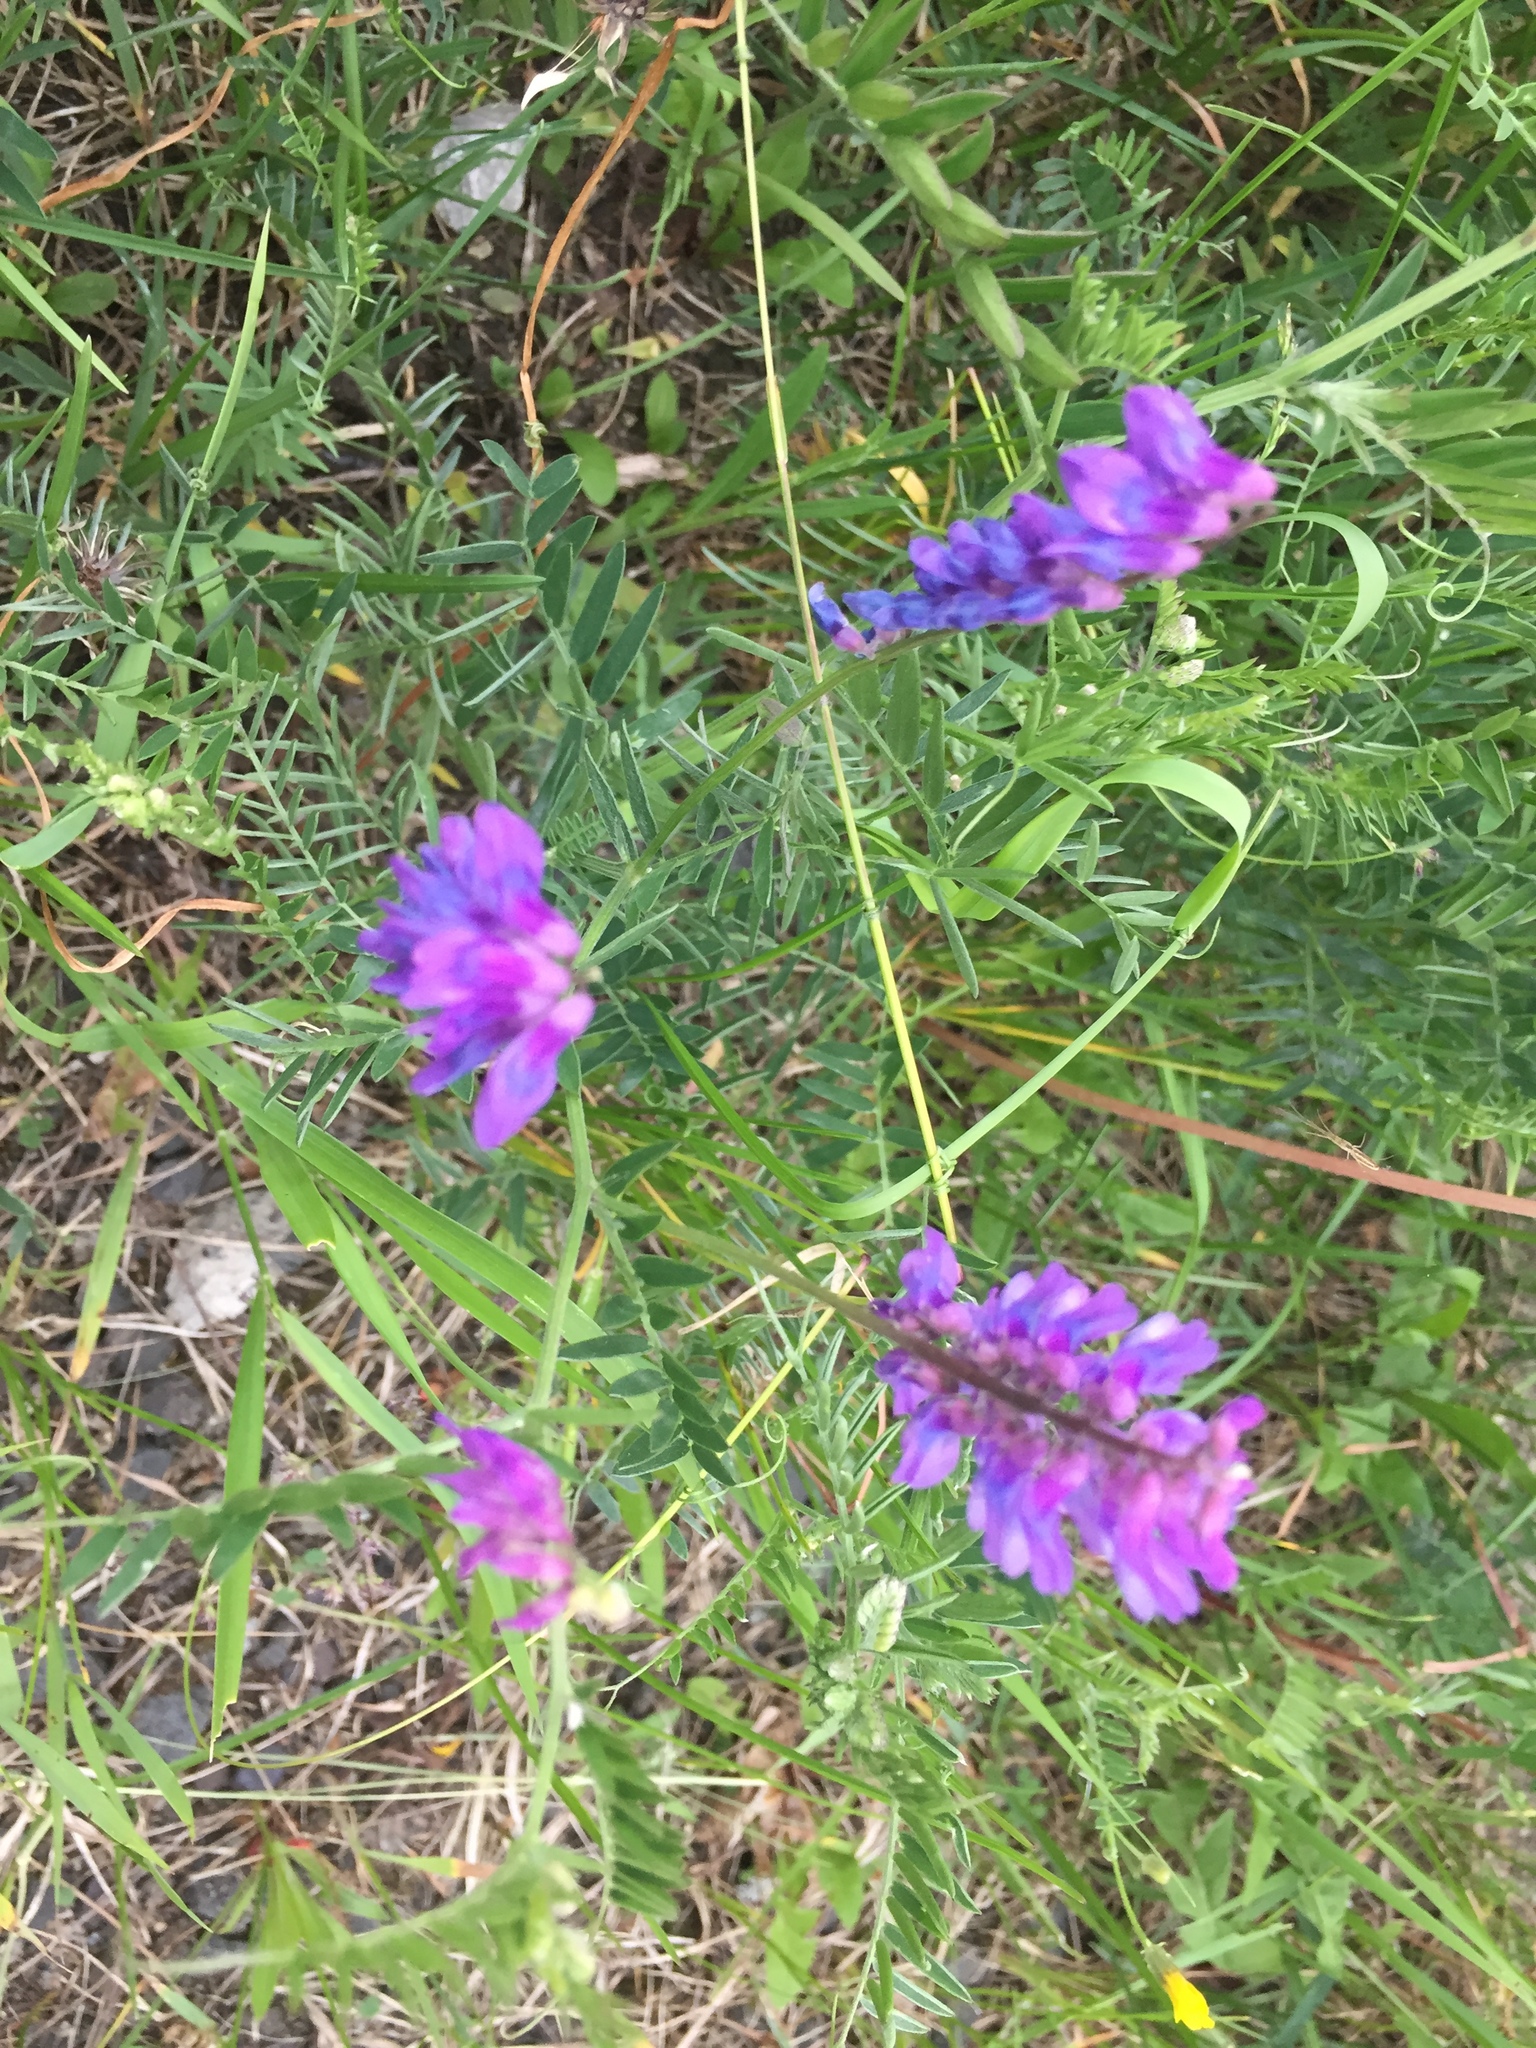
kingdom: Plantae
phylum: Tracheophyta
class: Magnoliopsida
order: Fabales
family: Fabaceae
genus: Vicia
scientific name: Vicia cracca
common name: Bird vetch
